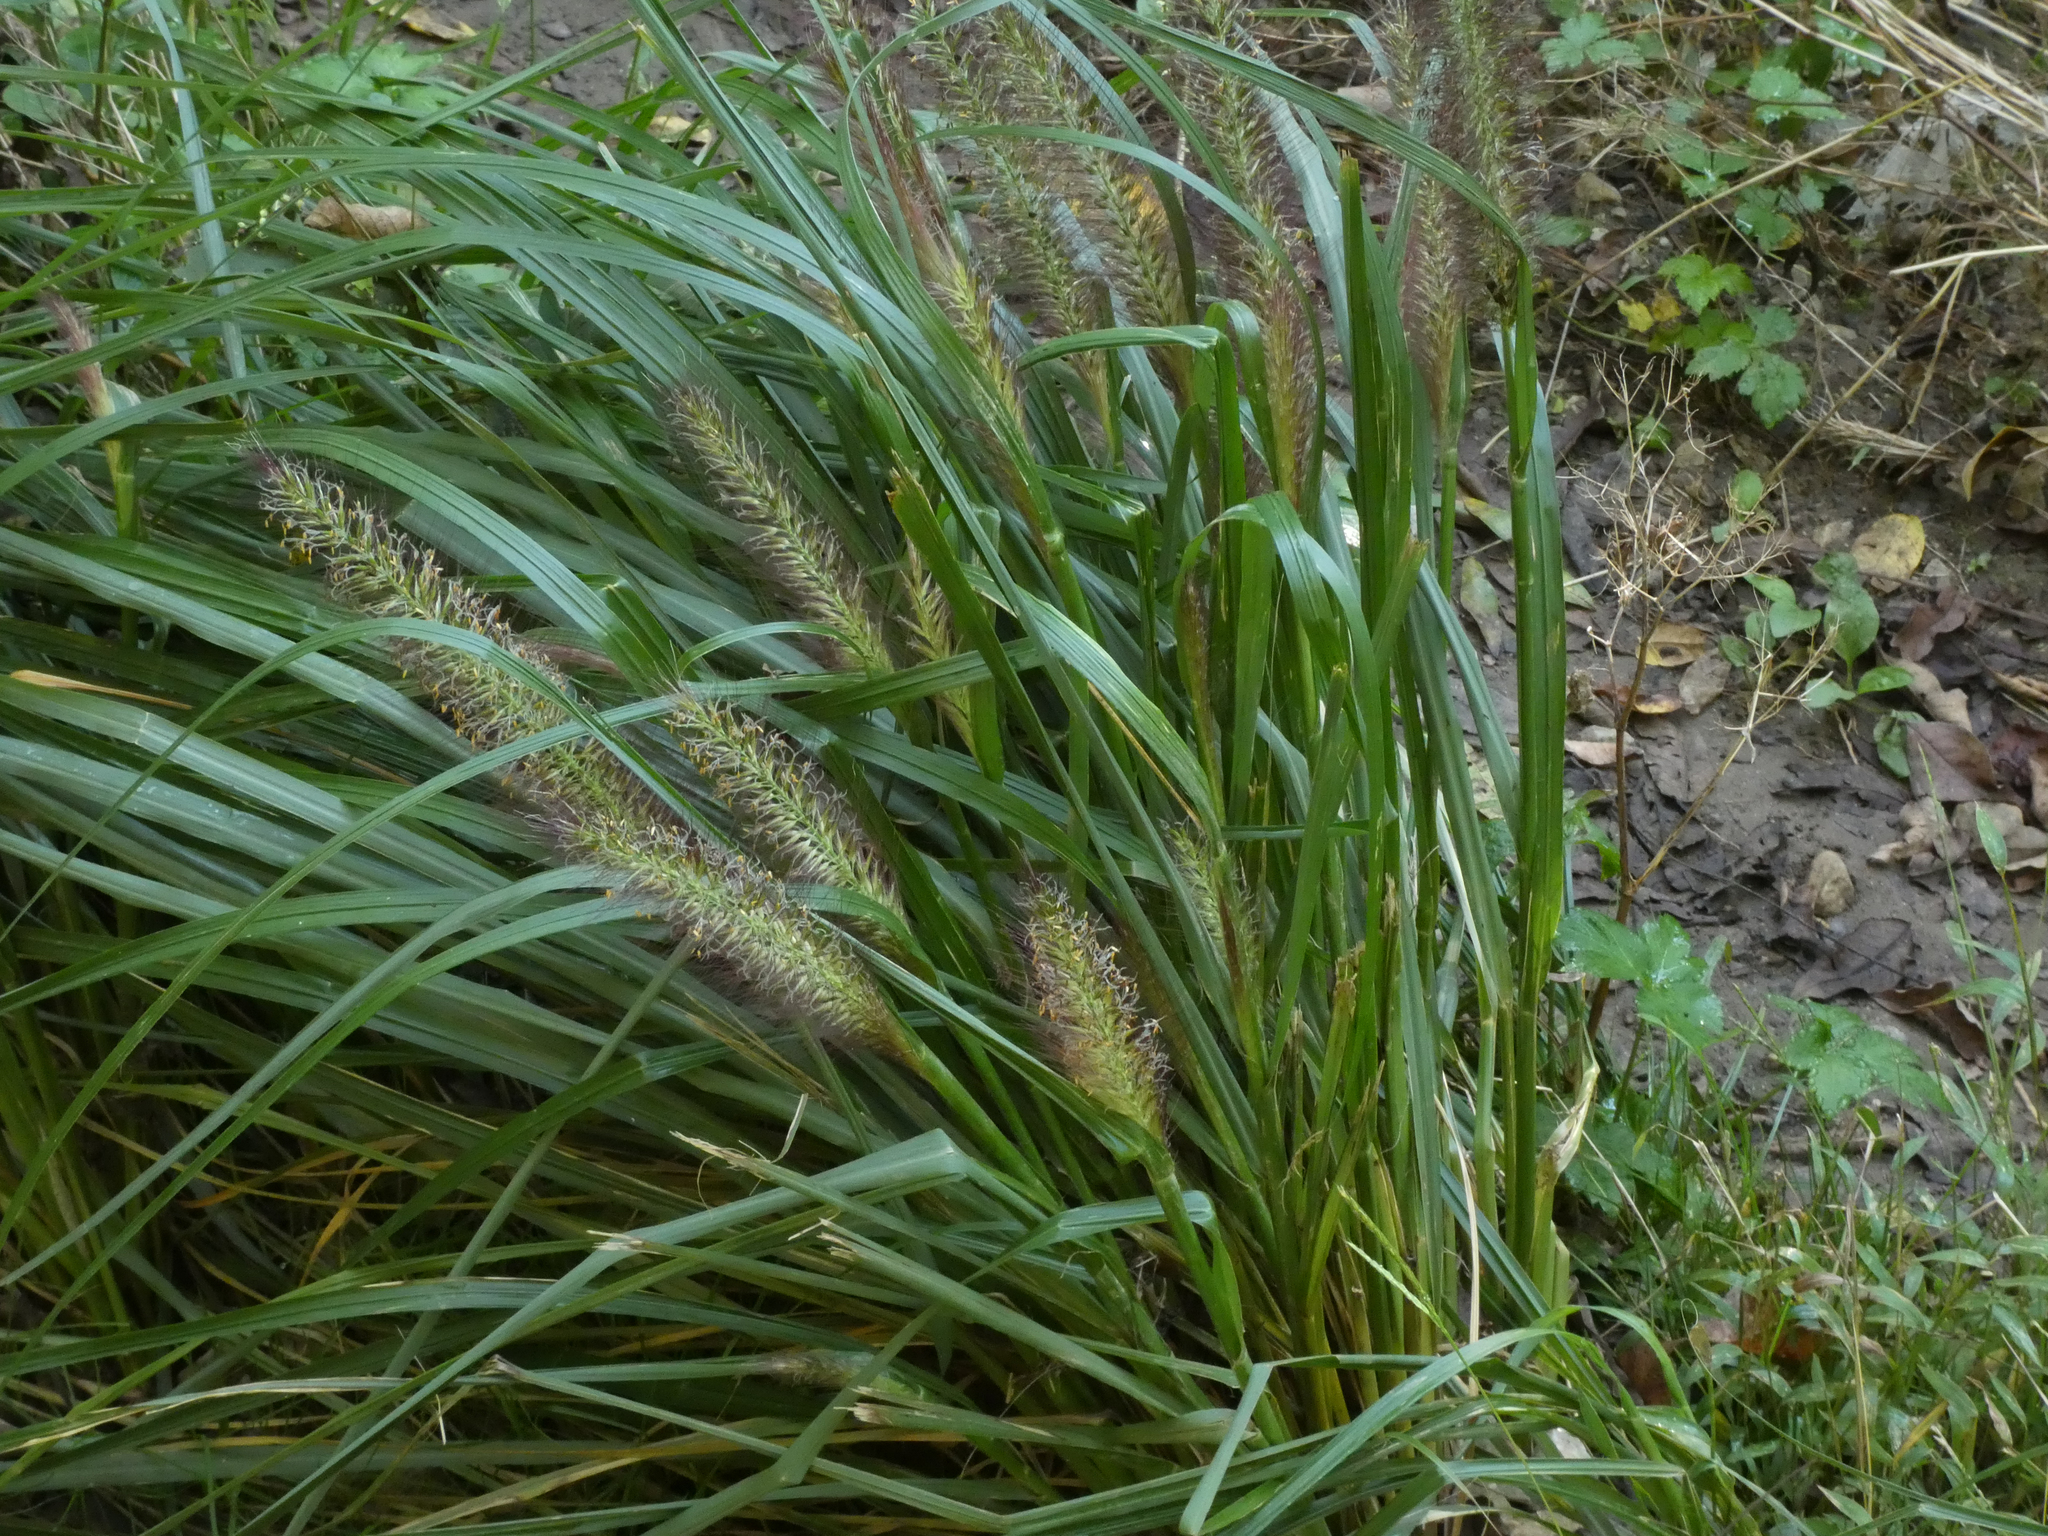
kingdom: Plantae
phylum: Tracheophyta
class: Liliopsida
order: Poales
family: Poaceae
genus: Cenchrus
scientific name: Cenchrus alopecuroides
